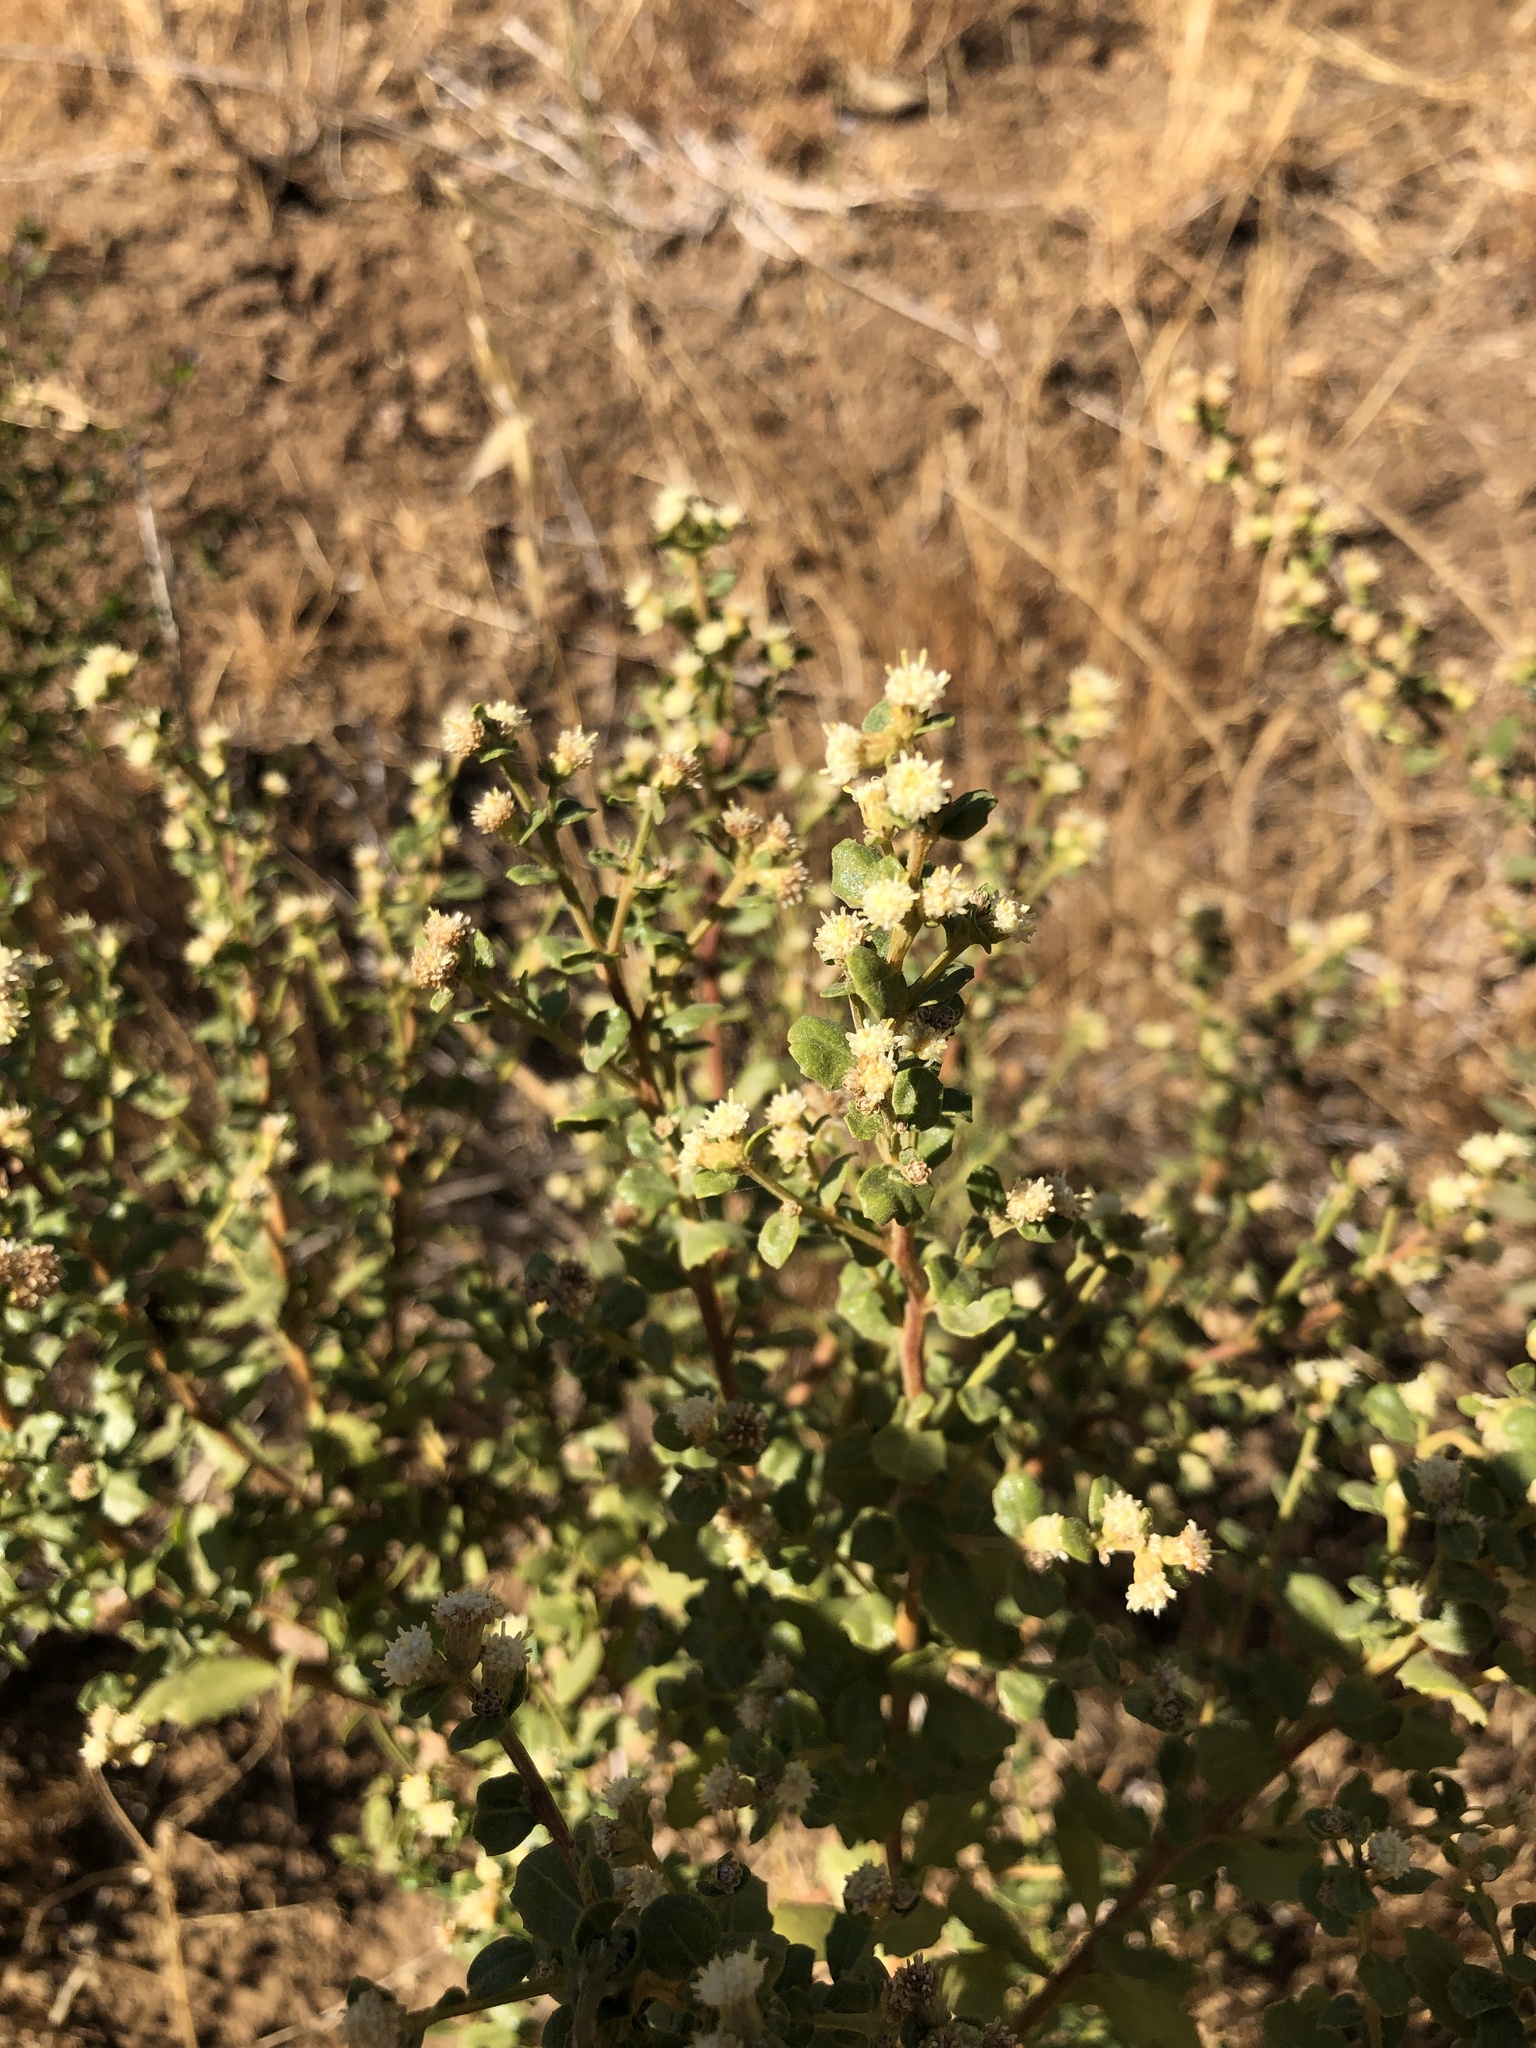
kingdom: Plantae
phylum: Tracheophyta
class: Magnoliopsida
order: Asterales
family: Asteraceae
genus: Baccharis
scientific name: Baccharis pilularis
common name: Coyotebrush
